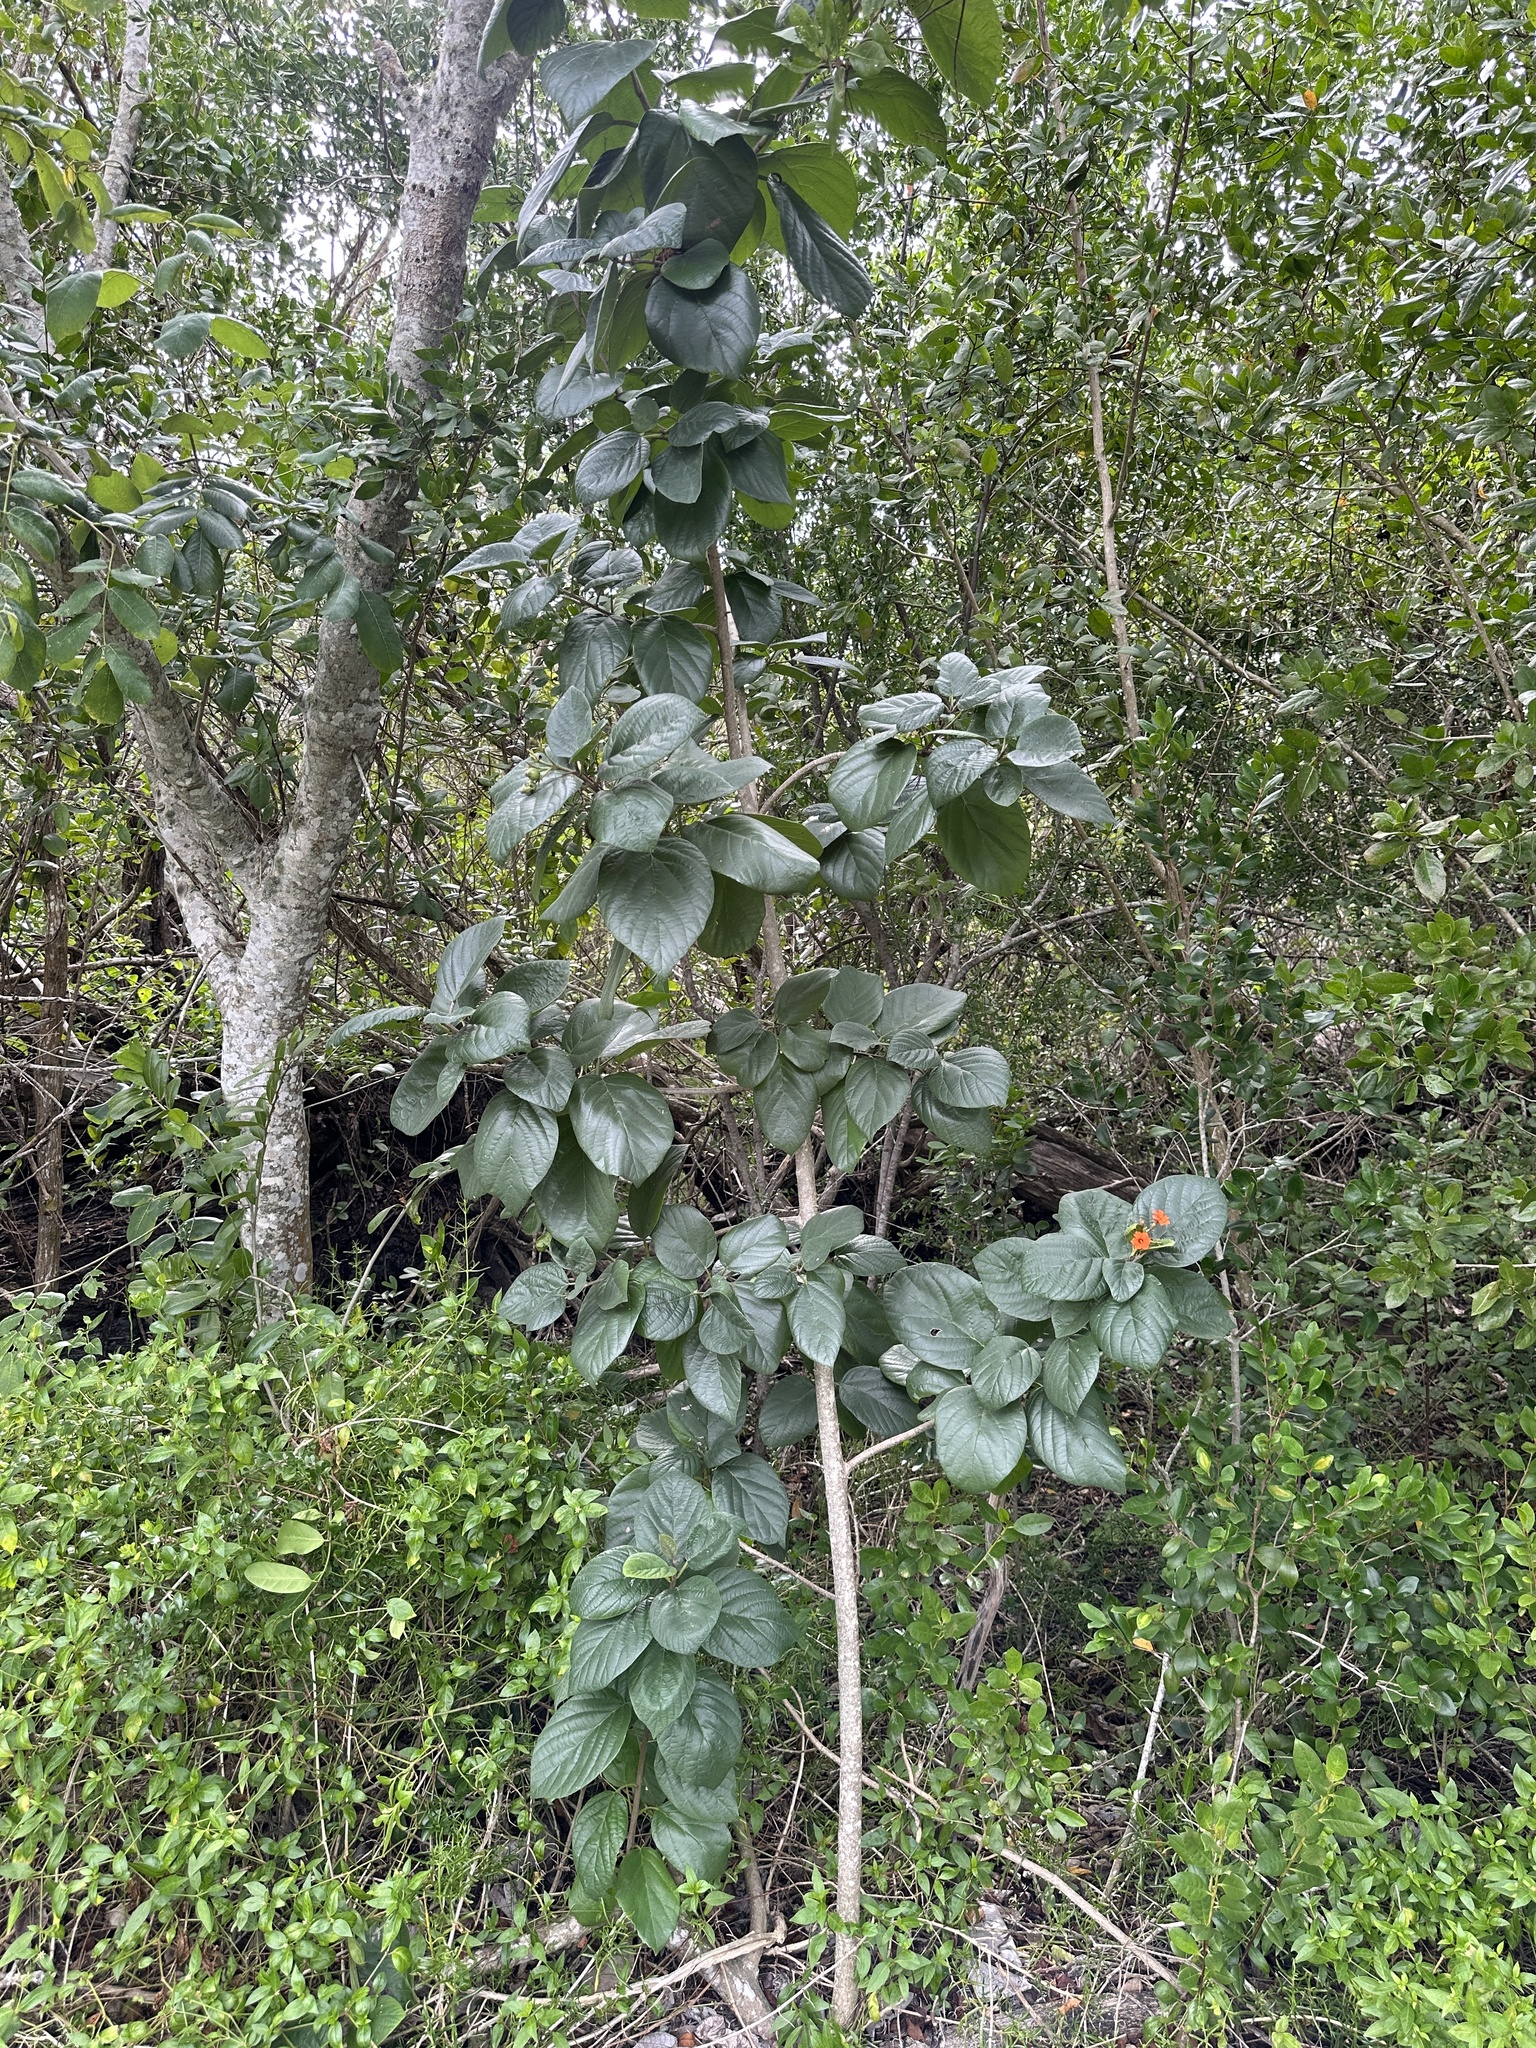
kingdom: Plantae
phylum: Tracheophyta
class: Magnoliopsida
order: Boraginales
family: Cordiaceae
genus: Cordia
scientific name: Cordia sebestena
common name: Largeleaf geigertree
